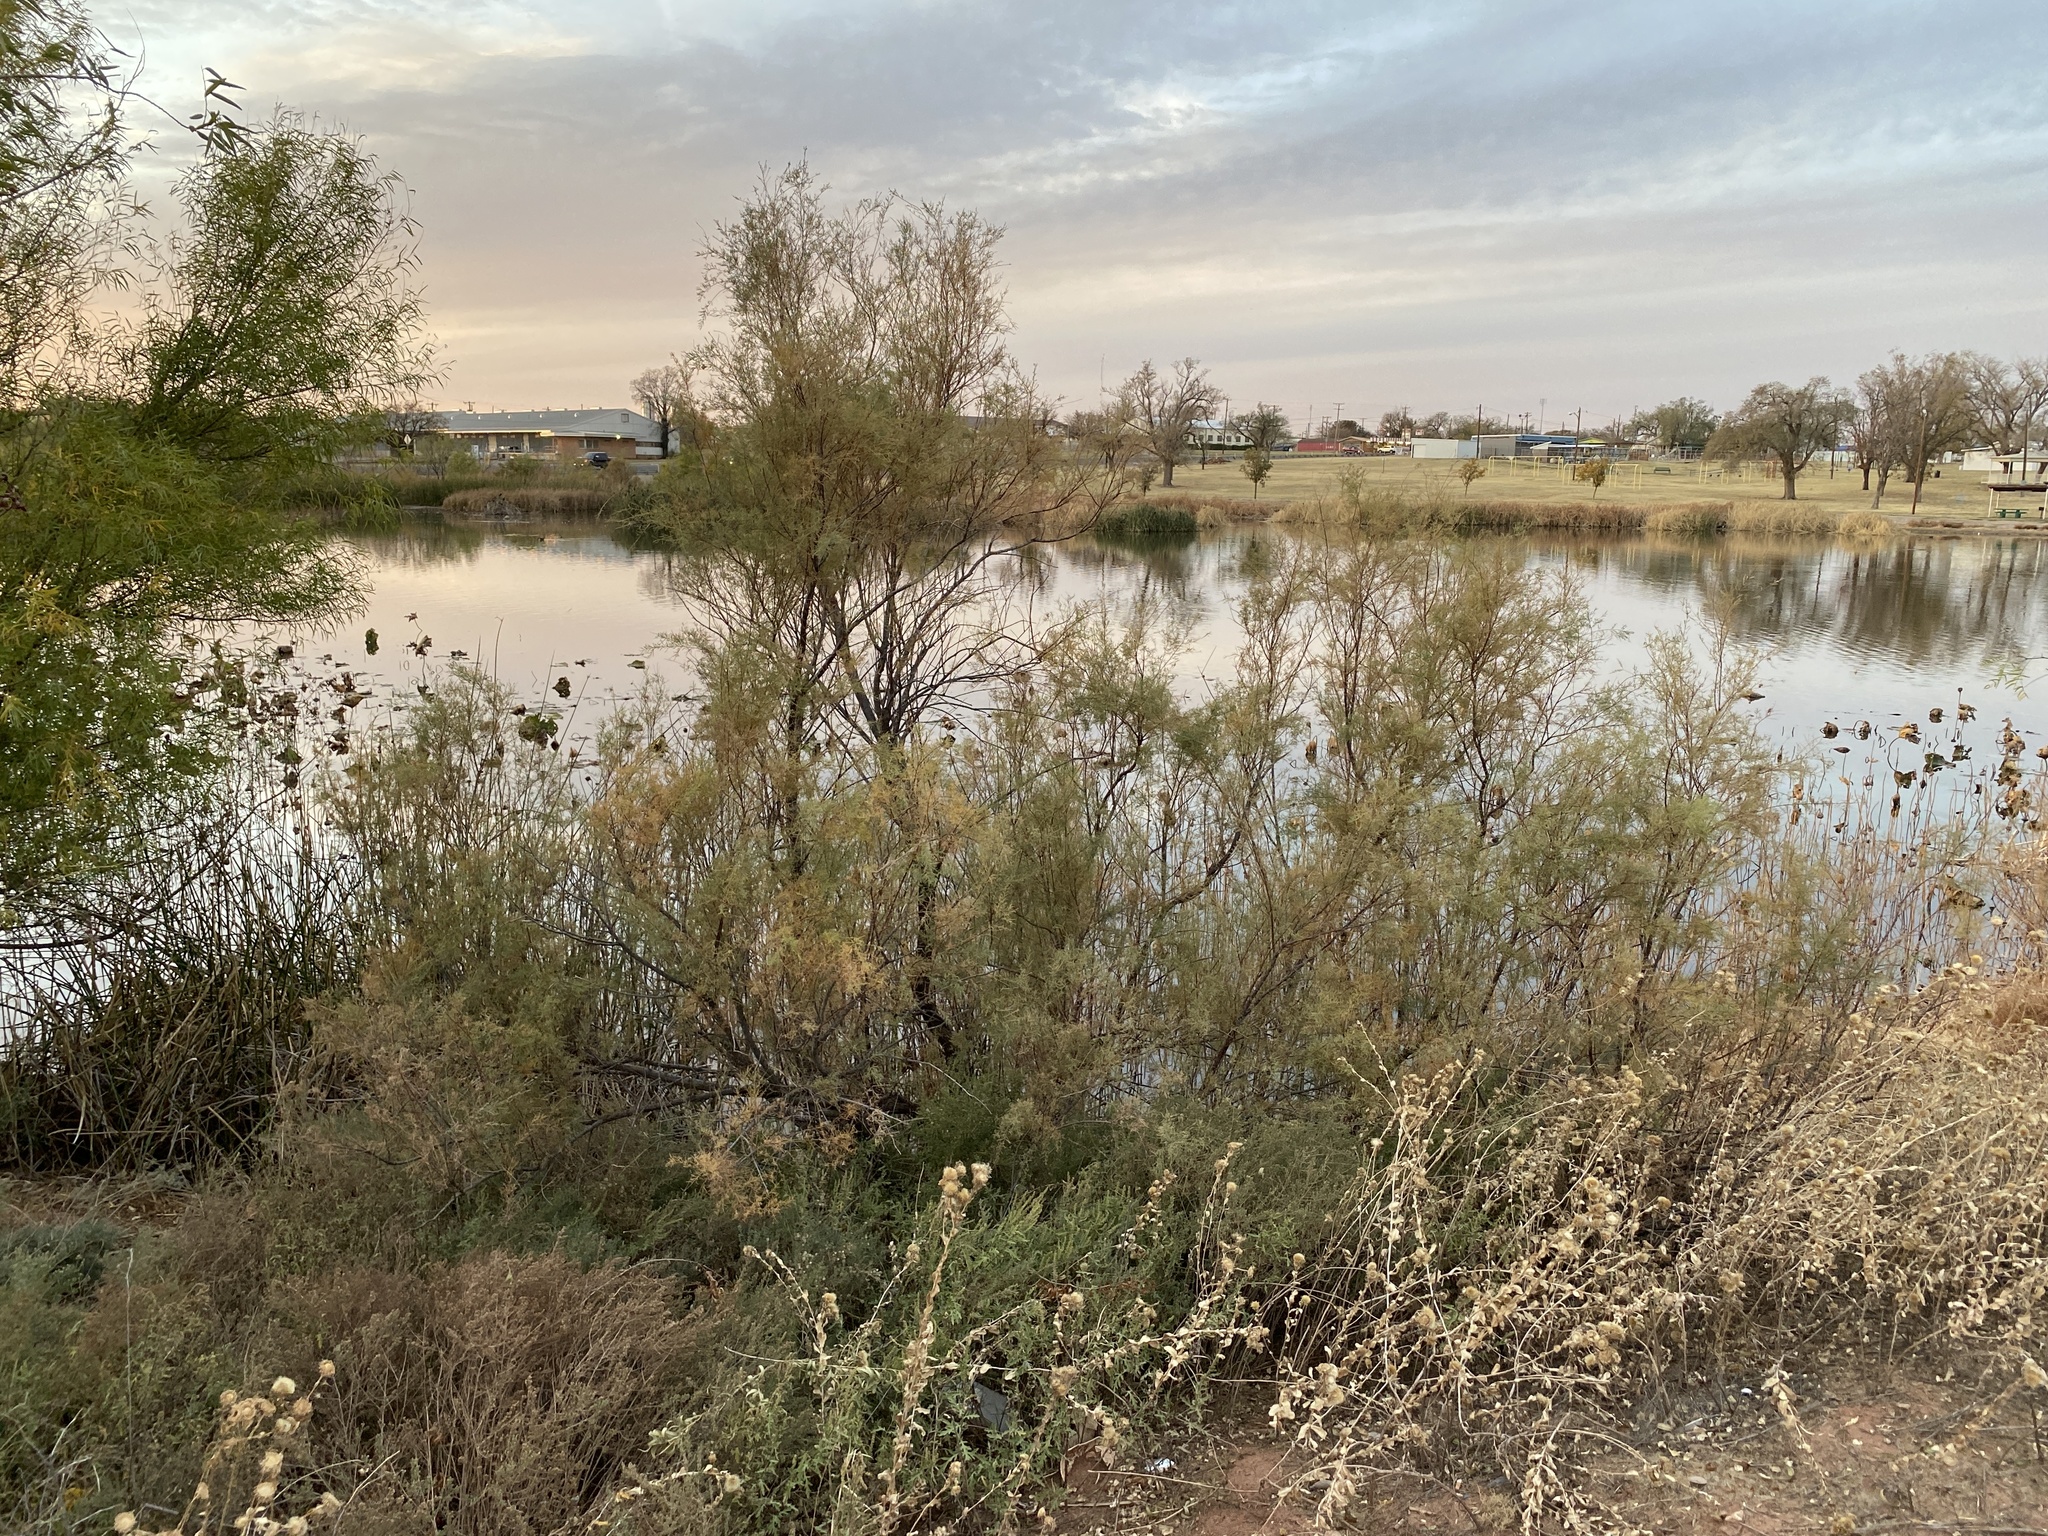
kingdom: Plantae
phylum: Tracheophyta
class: Magnoliopsida
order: Caryophyllales
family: Tamaricaceae
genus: Tamarix
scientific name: Tamarix
